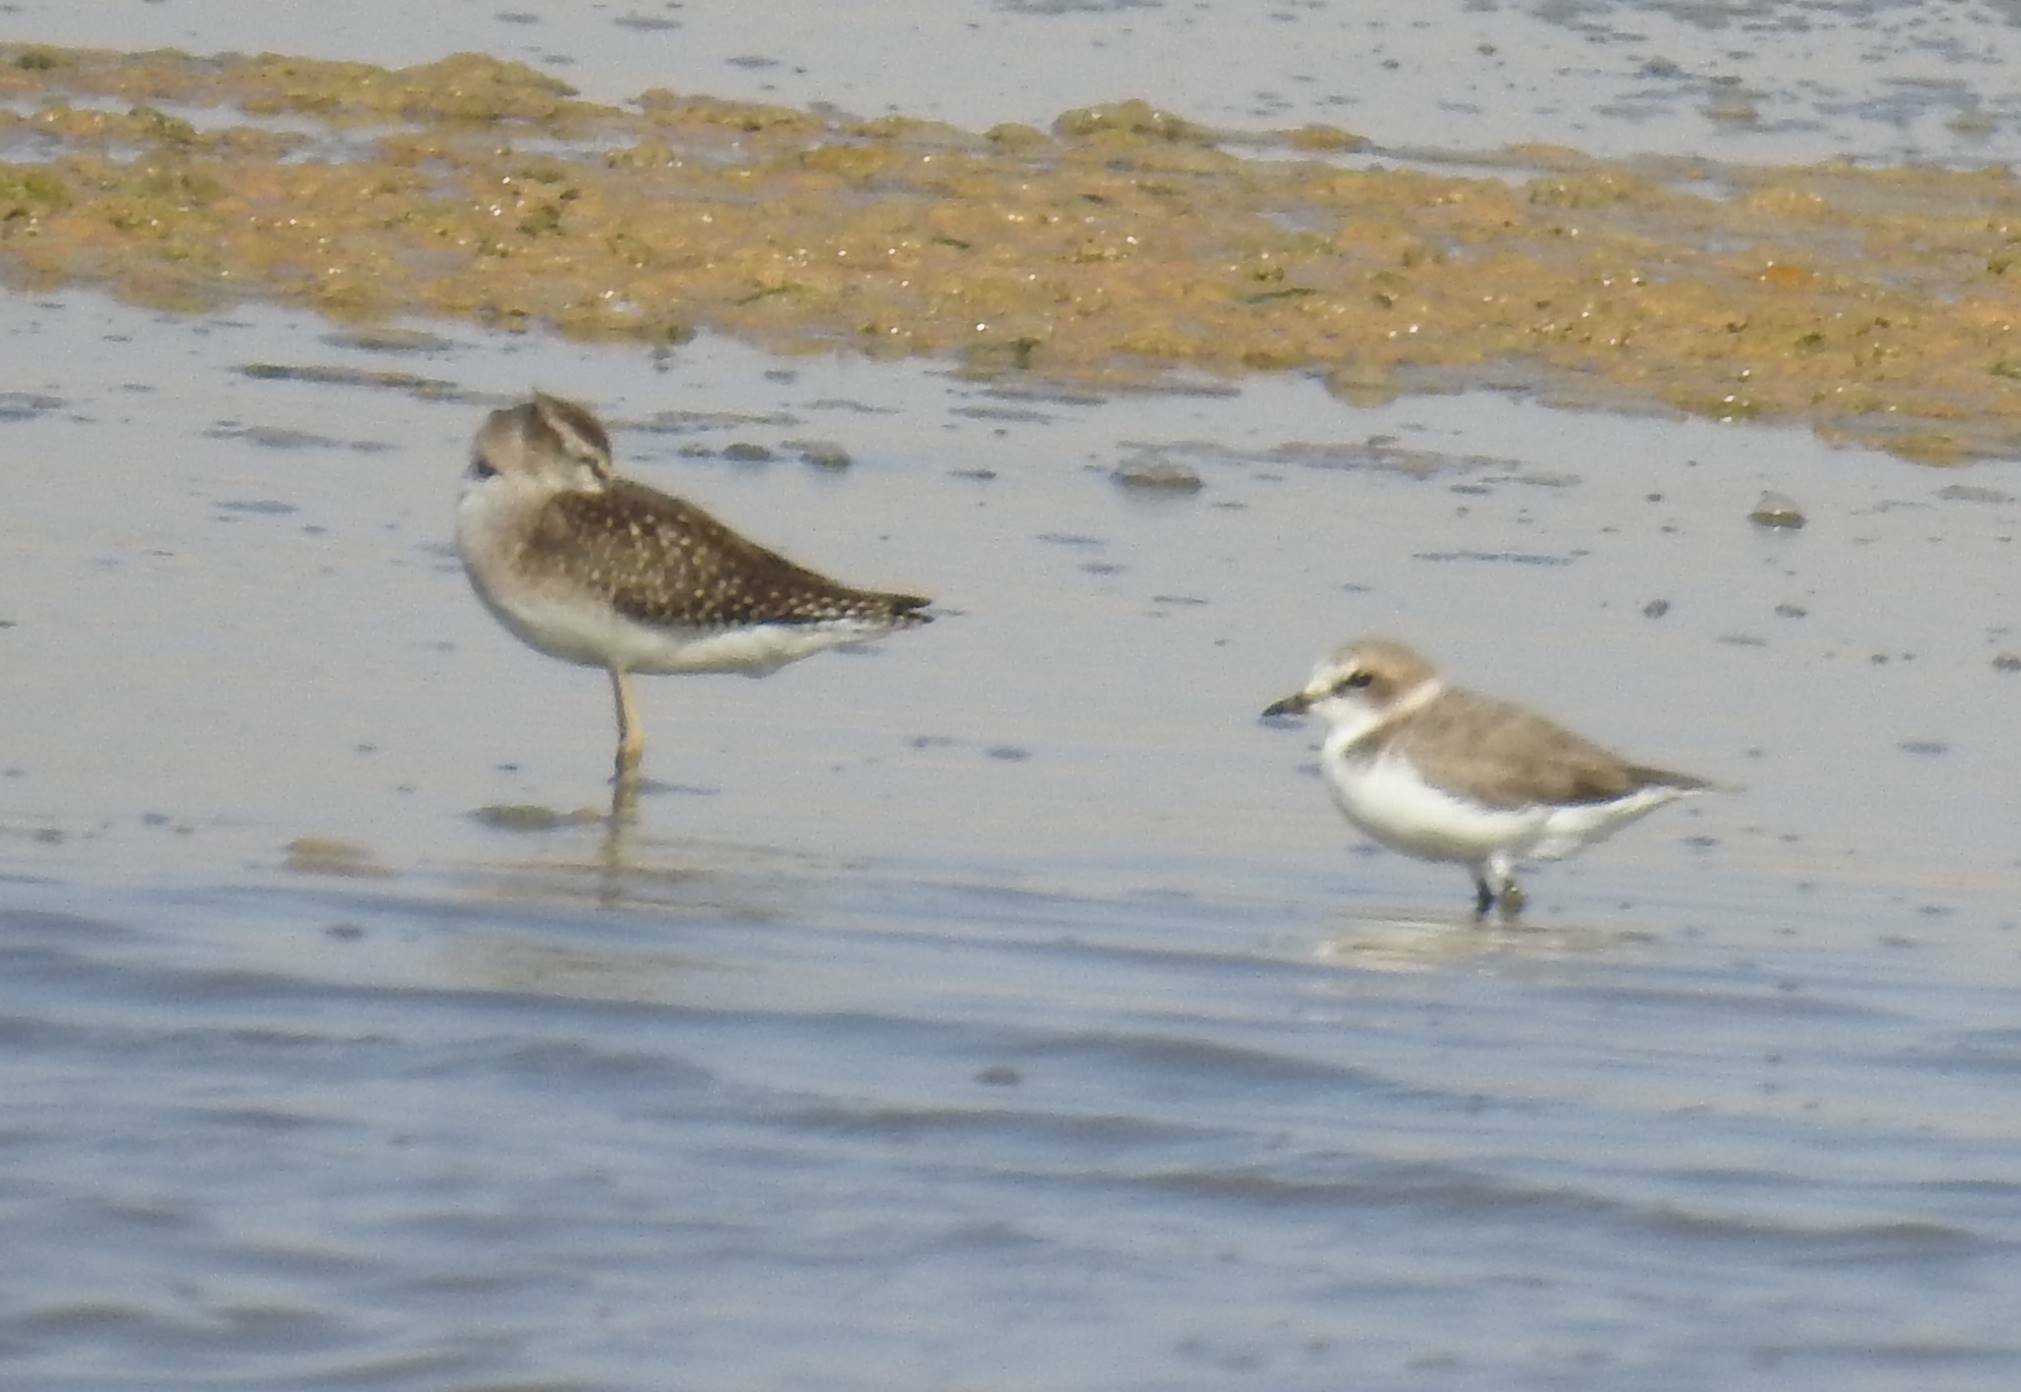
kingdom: Animalia
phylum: Chordata
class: Aves
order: Charadriiformes
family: Charadriidae
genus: Charadrius
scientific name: Charadrius alexandrinus
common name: Kentish plover
